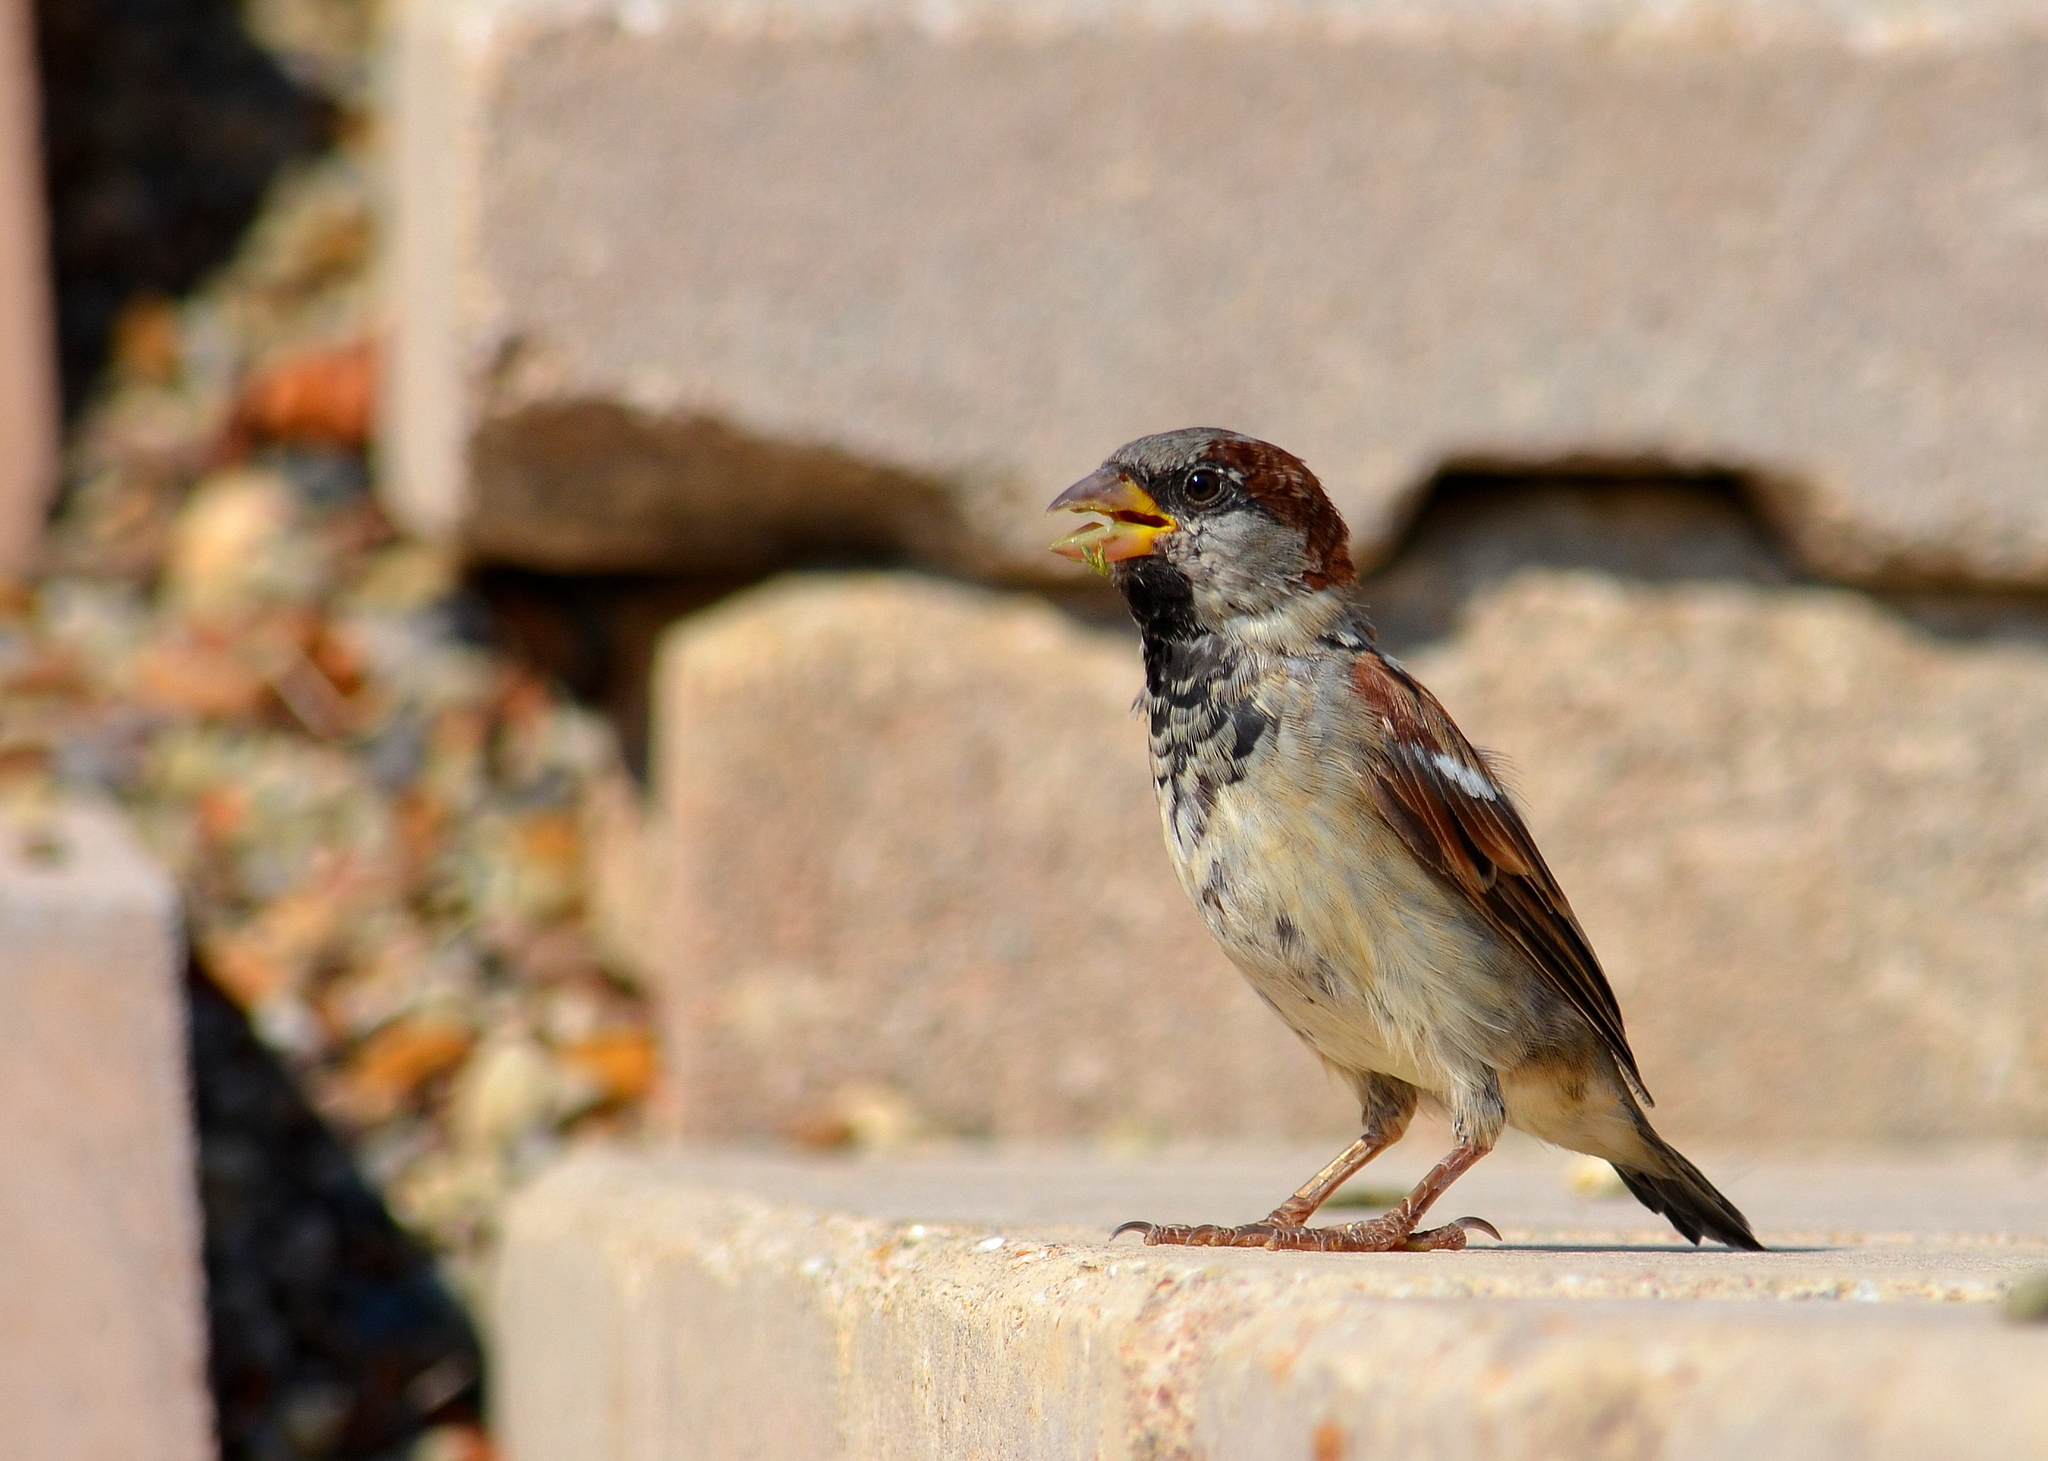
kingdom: Animalia
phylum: Chordata
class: Aves
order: Passeriformes
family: Passeridae
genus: Passer
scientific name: Passer domesticus
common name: House sparrow
